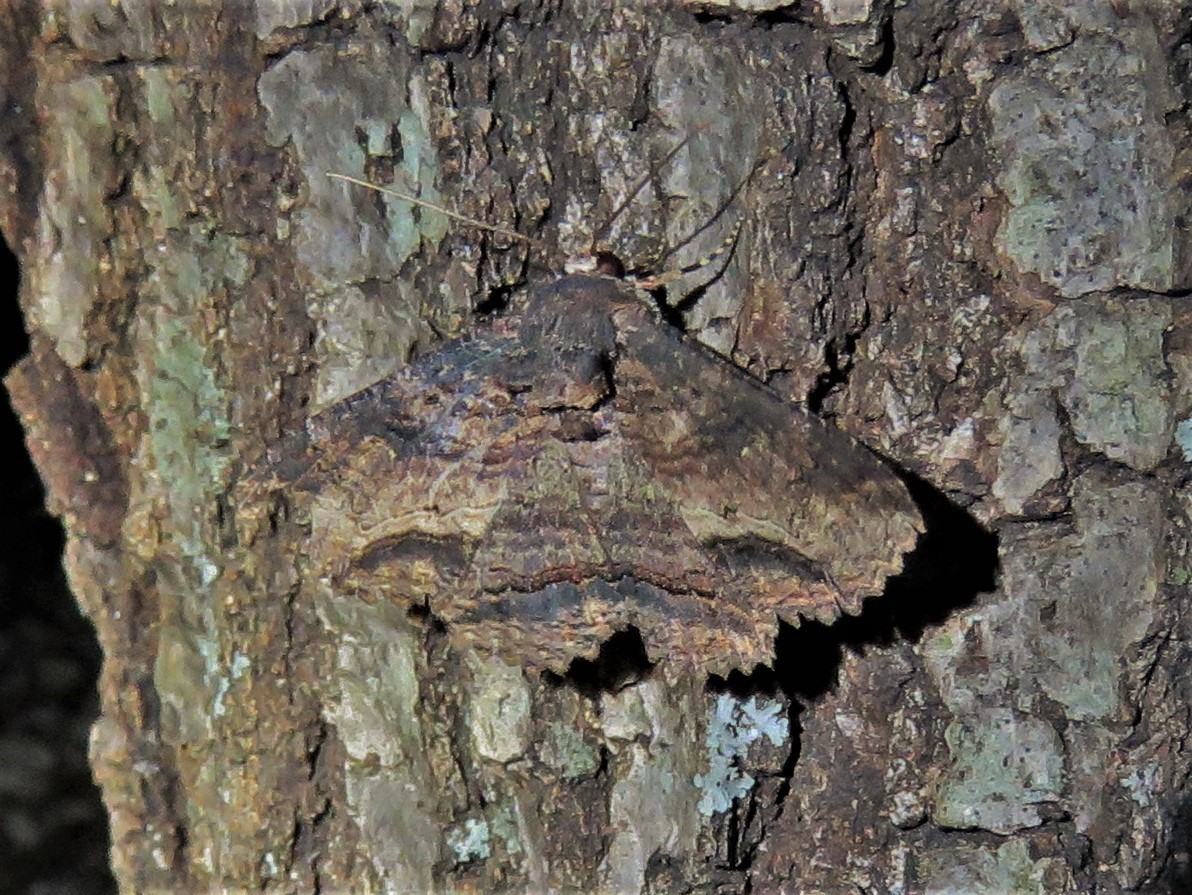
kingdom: Animalia
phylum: Arthropoda
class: Insecta
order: Lepidoptera
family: Erebidae
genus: Zale
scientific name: Zale lunata
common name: Lunate zale moth
